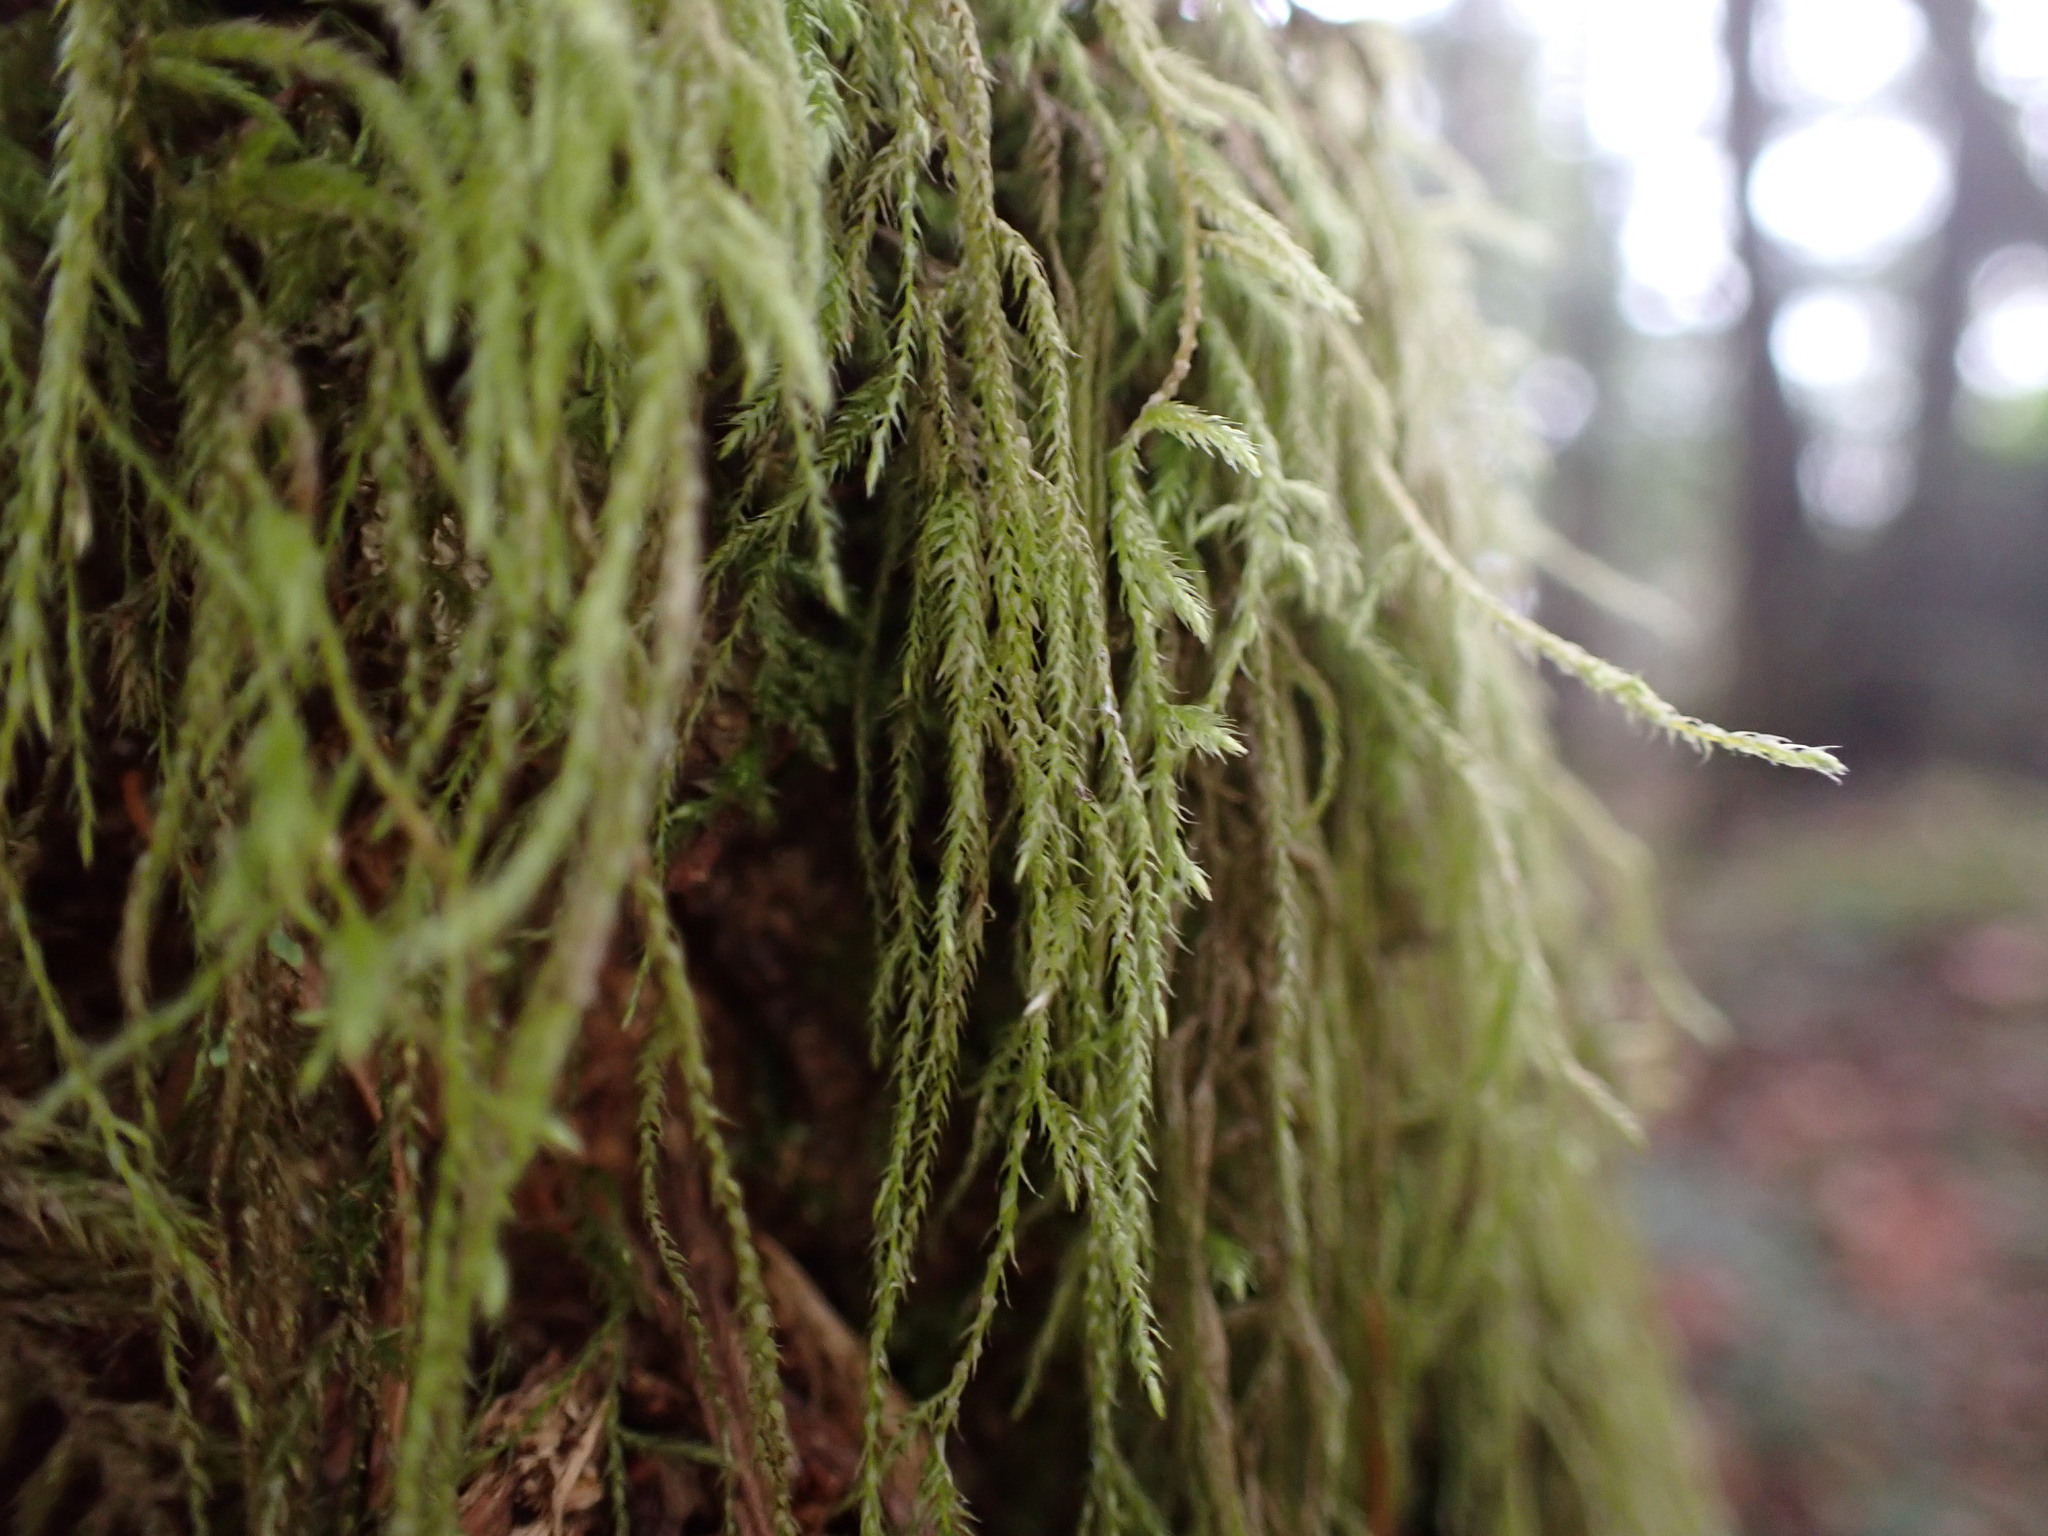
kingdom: Plantae
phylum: Bryophyta
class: Bryopsida
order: Hypnales
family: Lembophyllaceae
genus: Pseudisothecium
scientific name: Pseudisothecium stoloniferum
